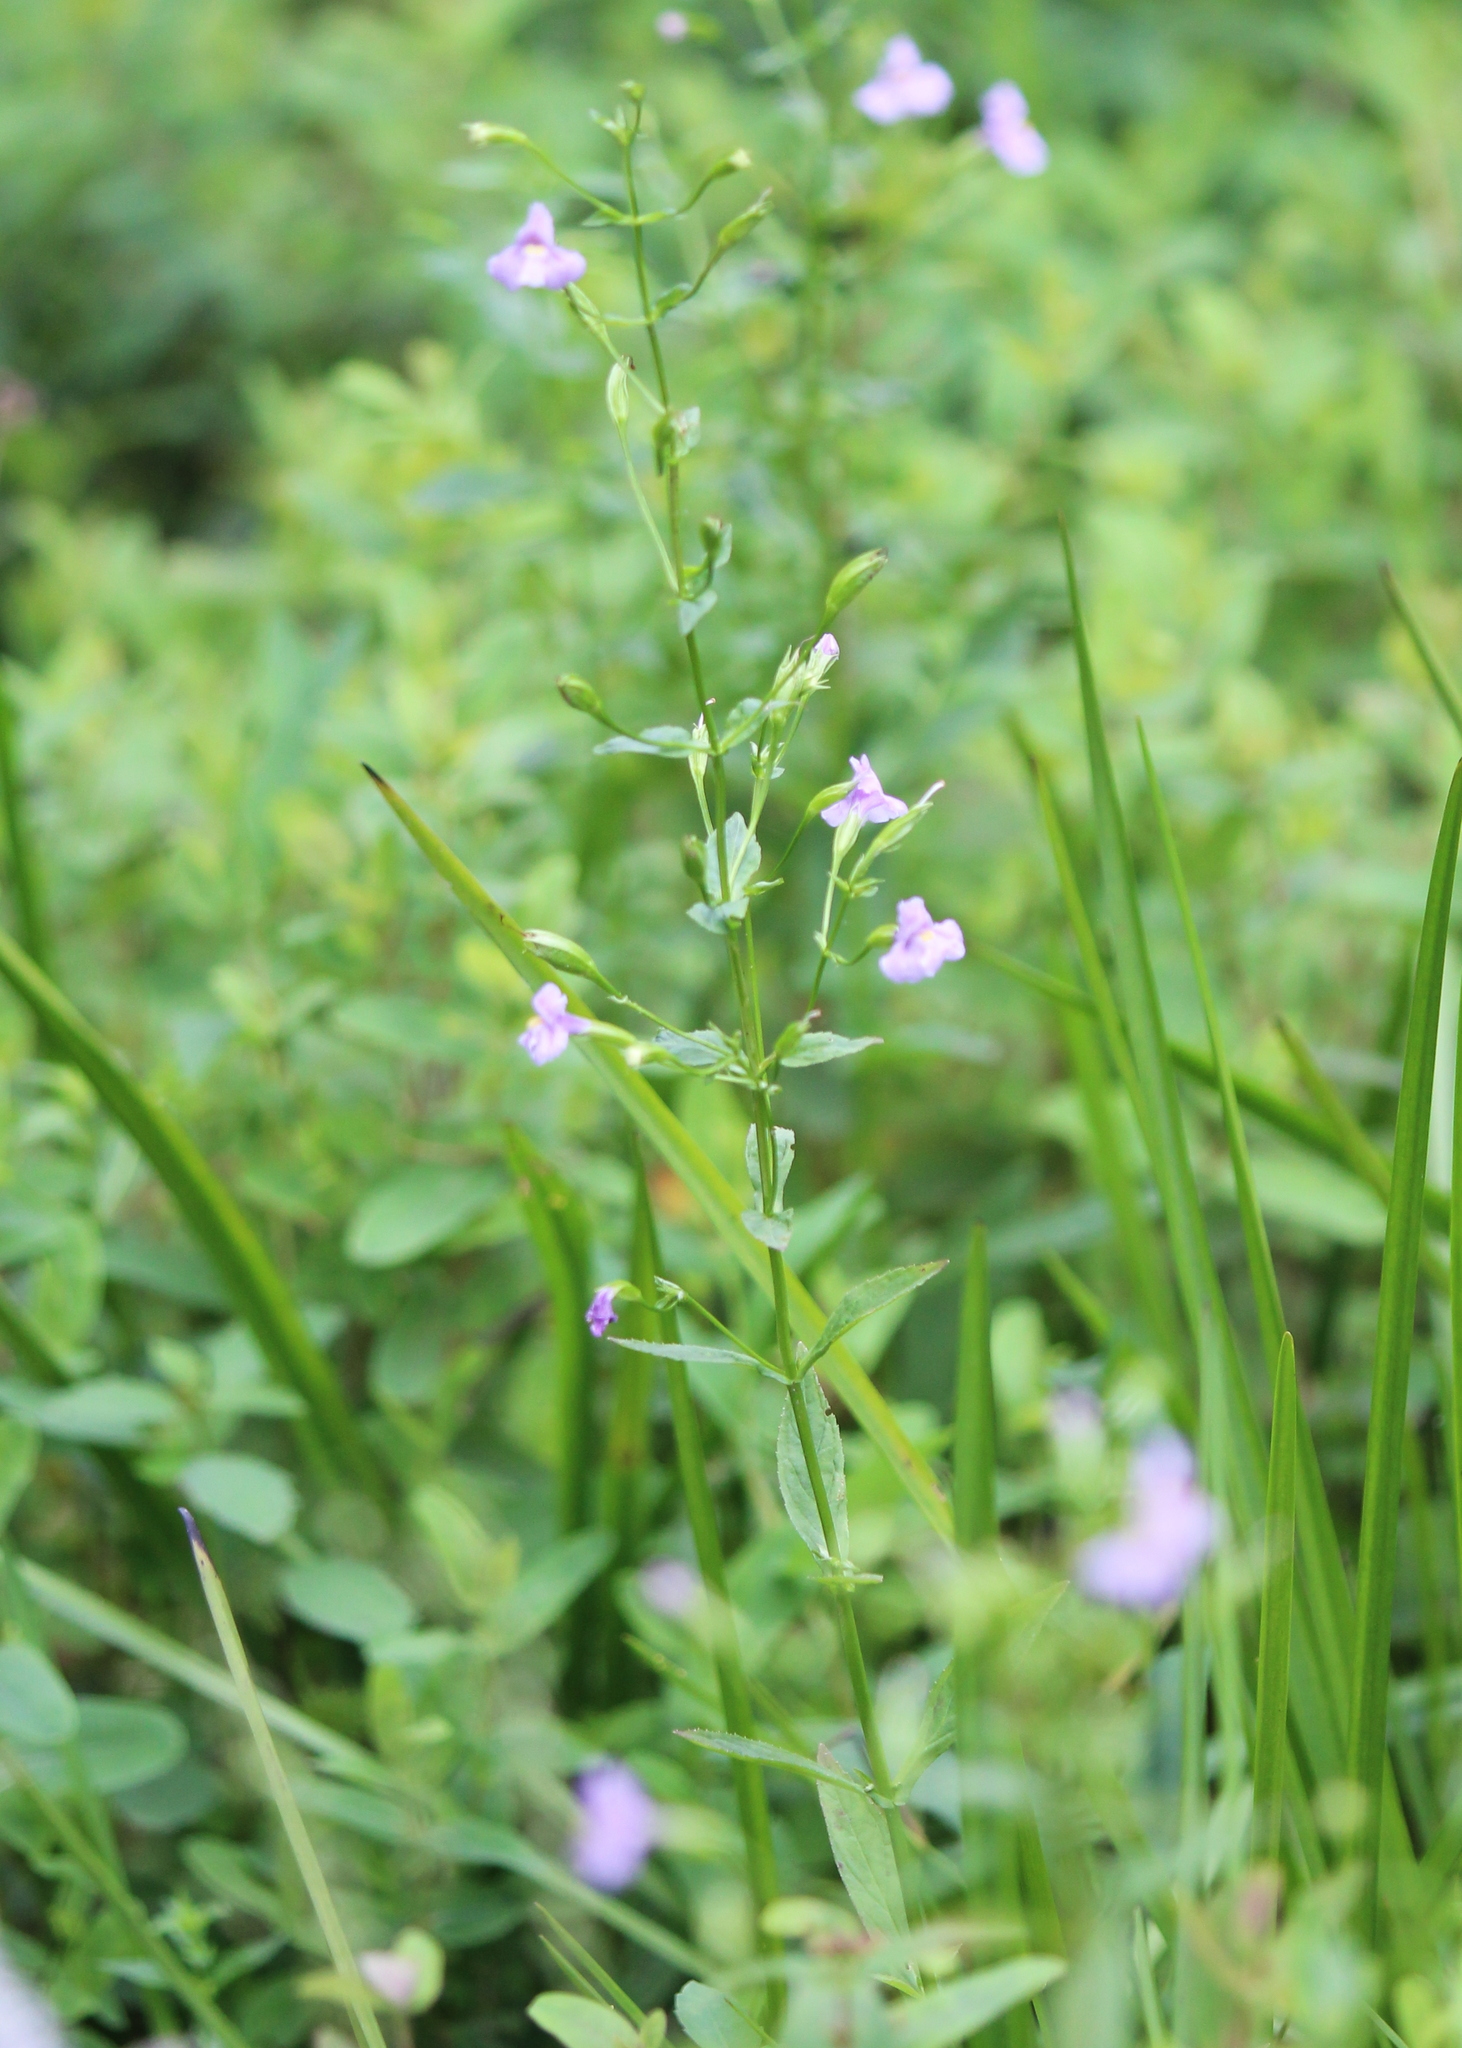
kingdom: Plantae
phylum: Tracheophyta
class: Magnoliopsida
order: Lamiales
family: Phrymaceae
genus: Mimulus
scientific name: Mimulus ringens
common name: Allegheny monkeyflower
